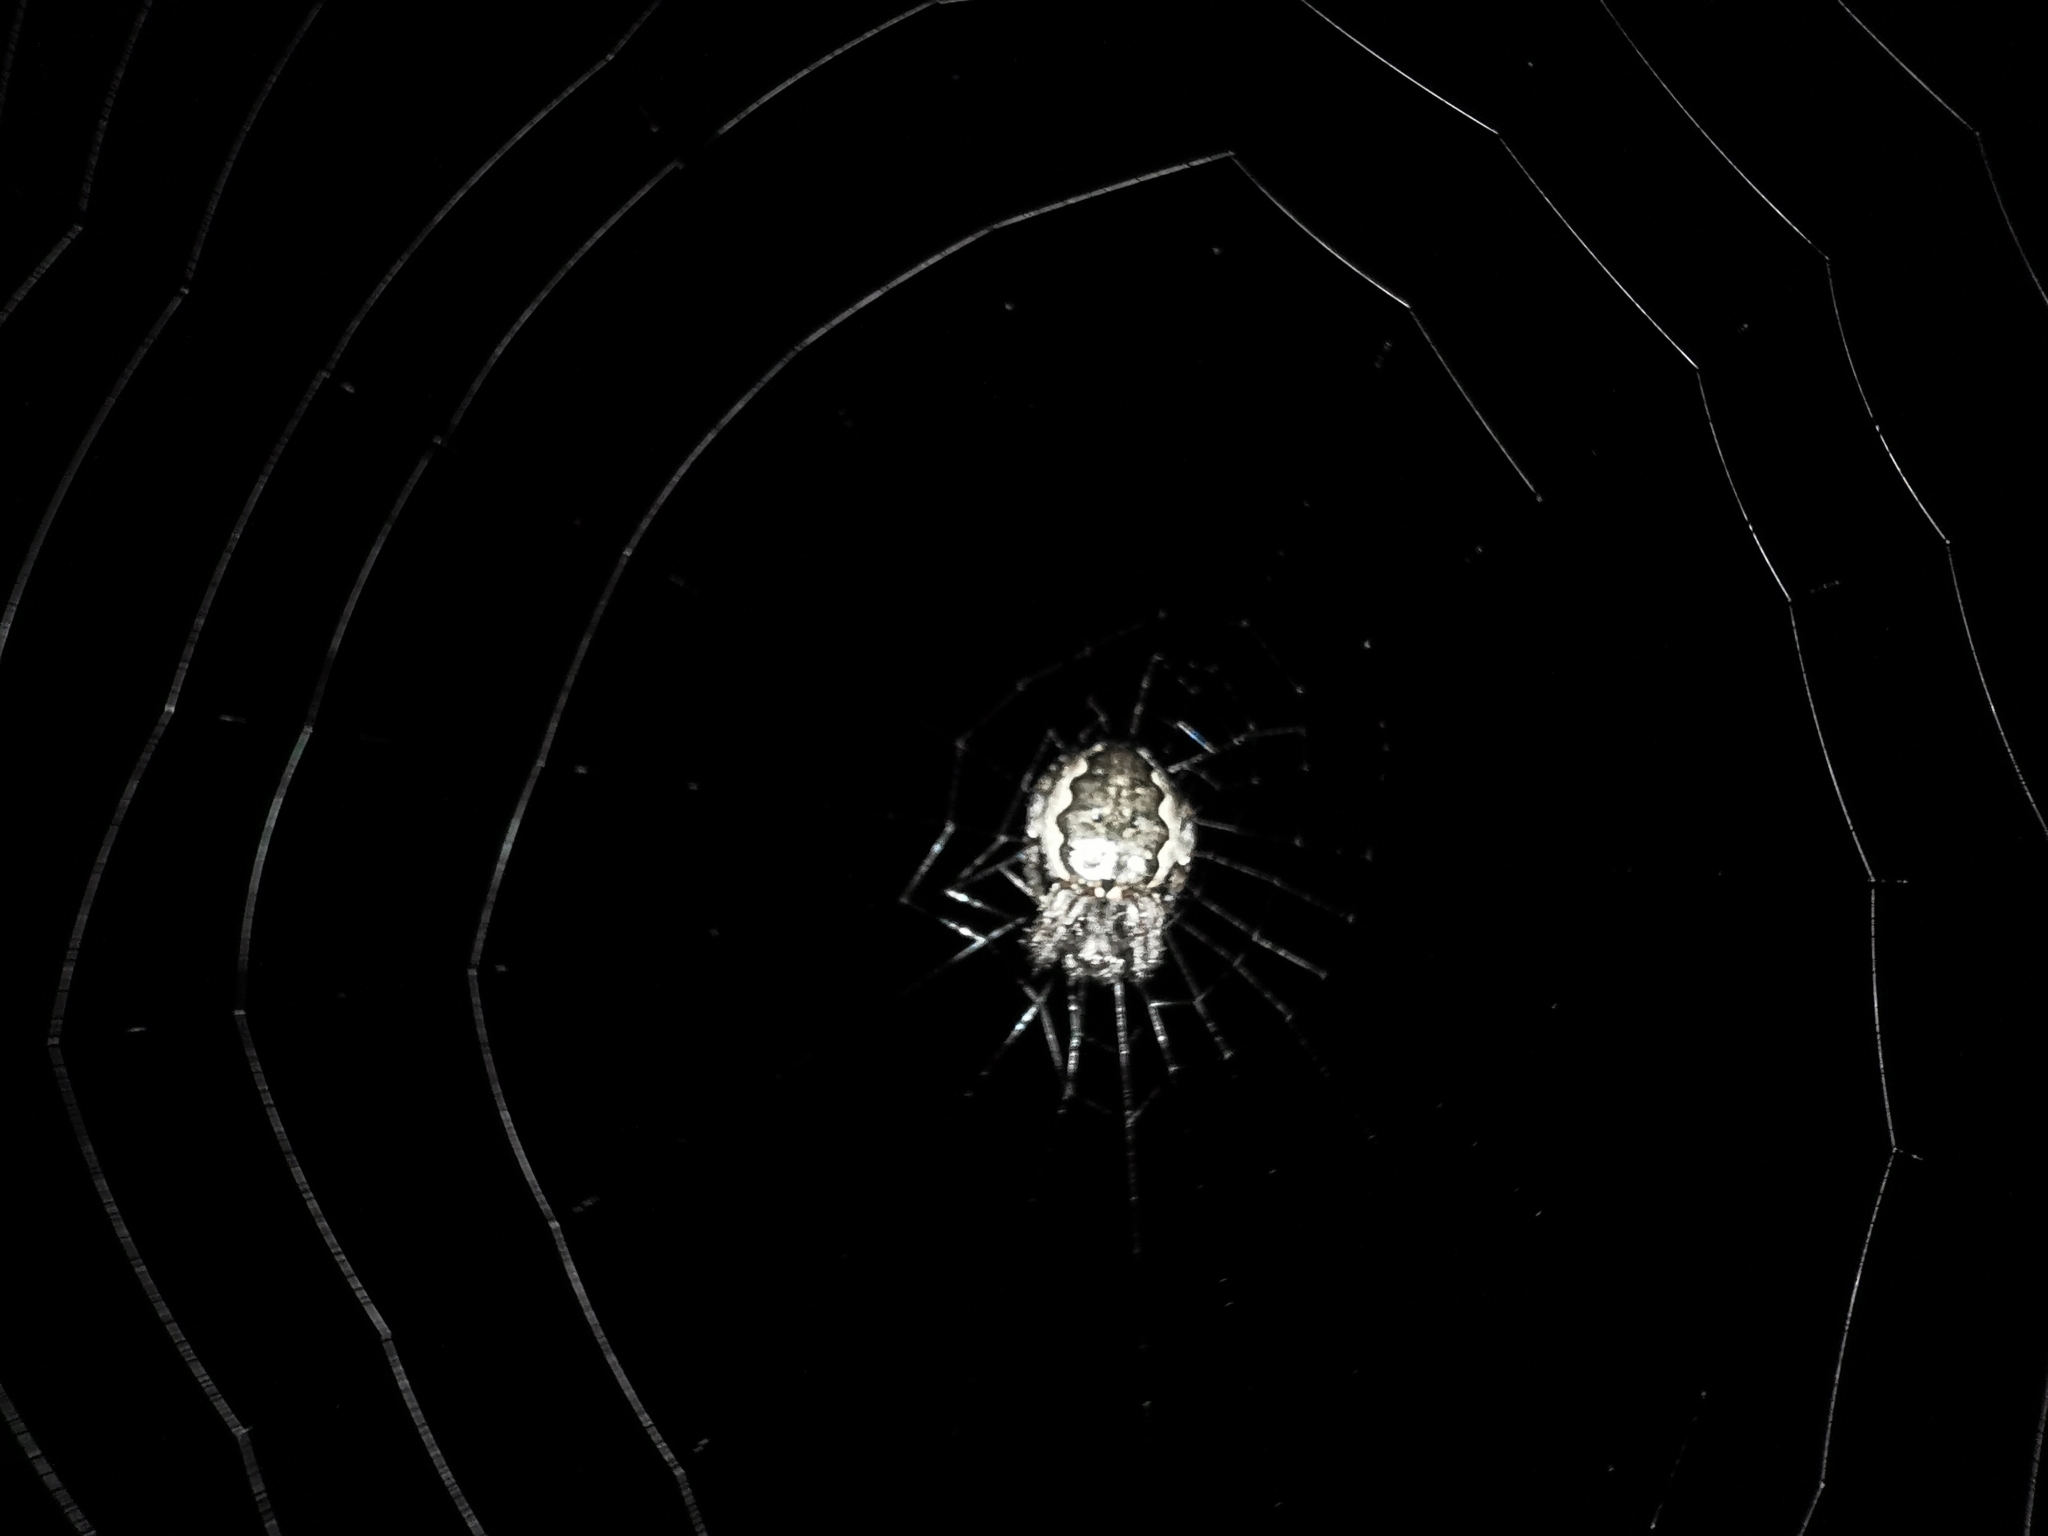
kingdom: Animalia
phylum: Arthropoda
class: Arachnida
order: Araneae
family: Araneidae
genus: Nuctenea
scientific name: Nuctenea umbratica
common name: Toad spider
